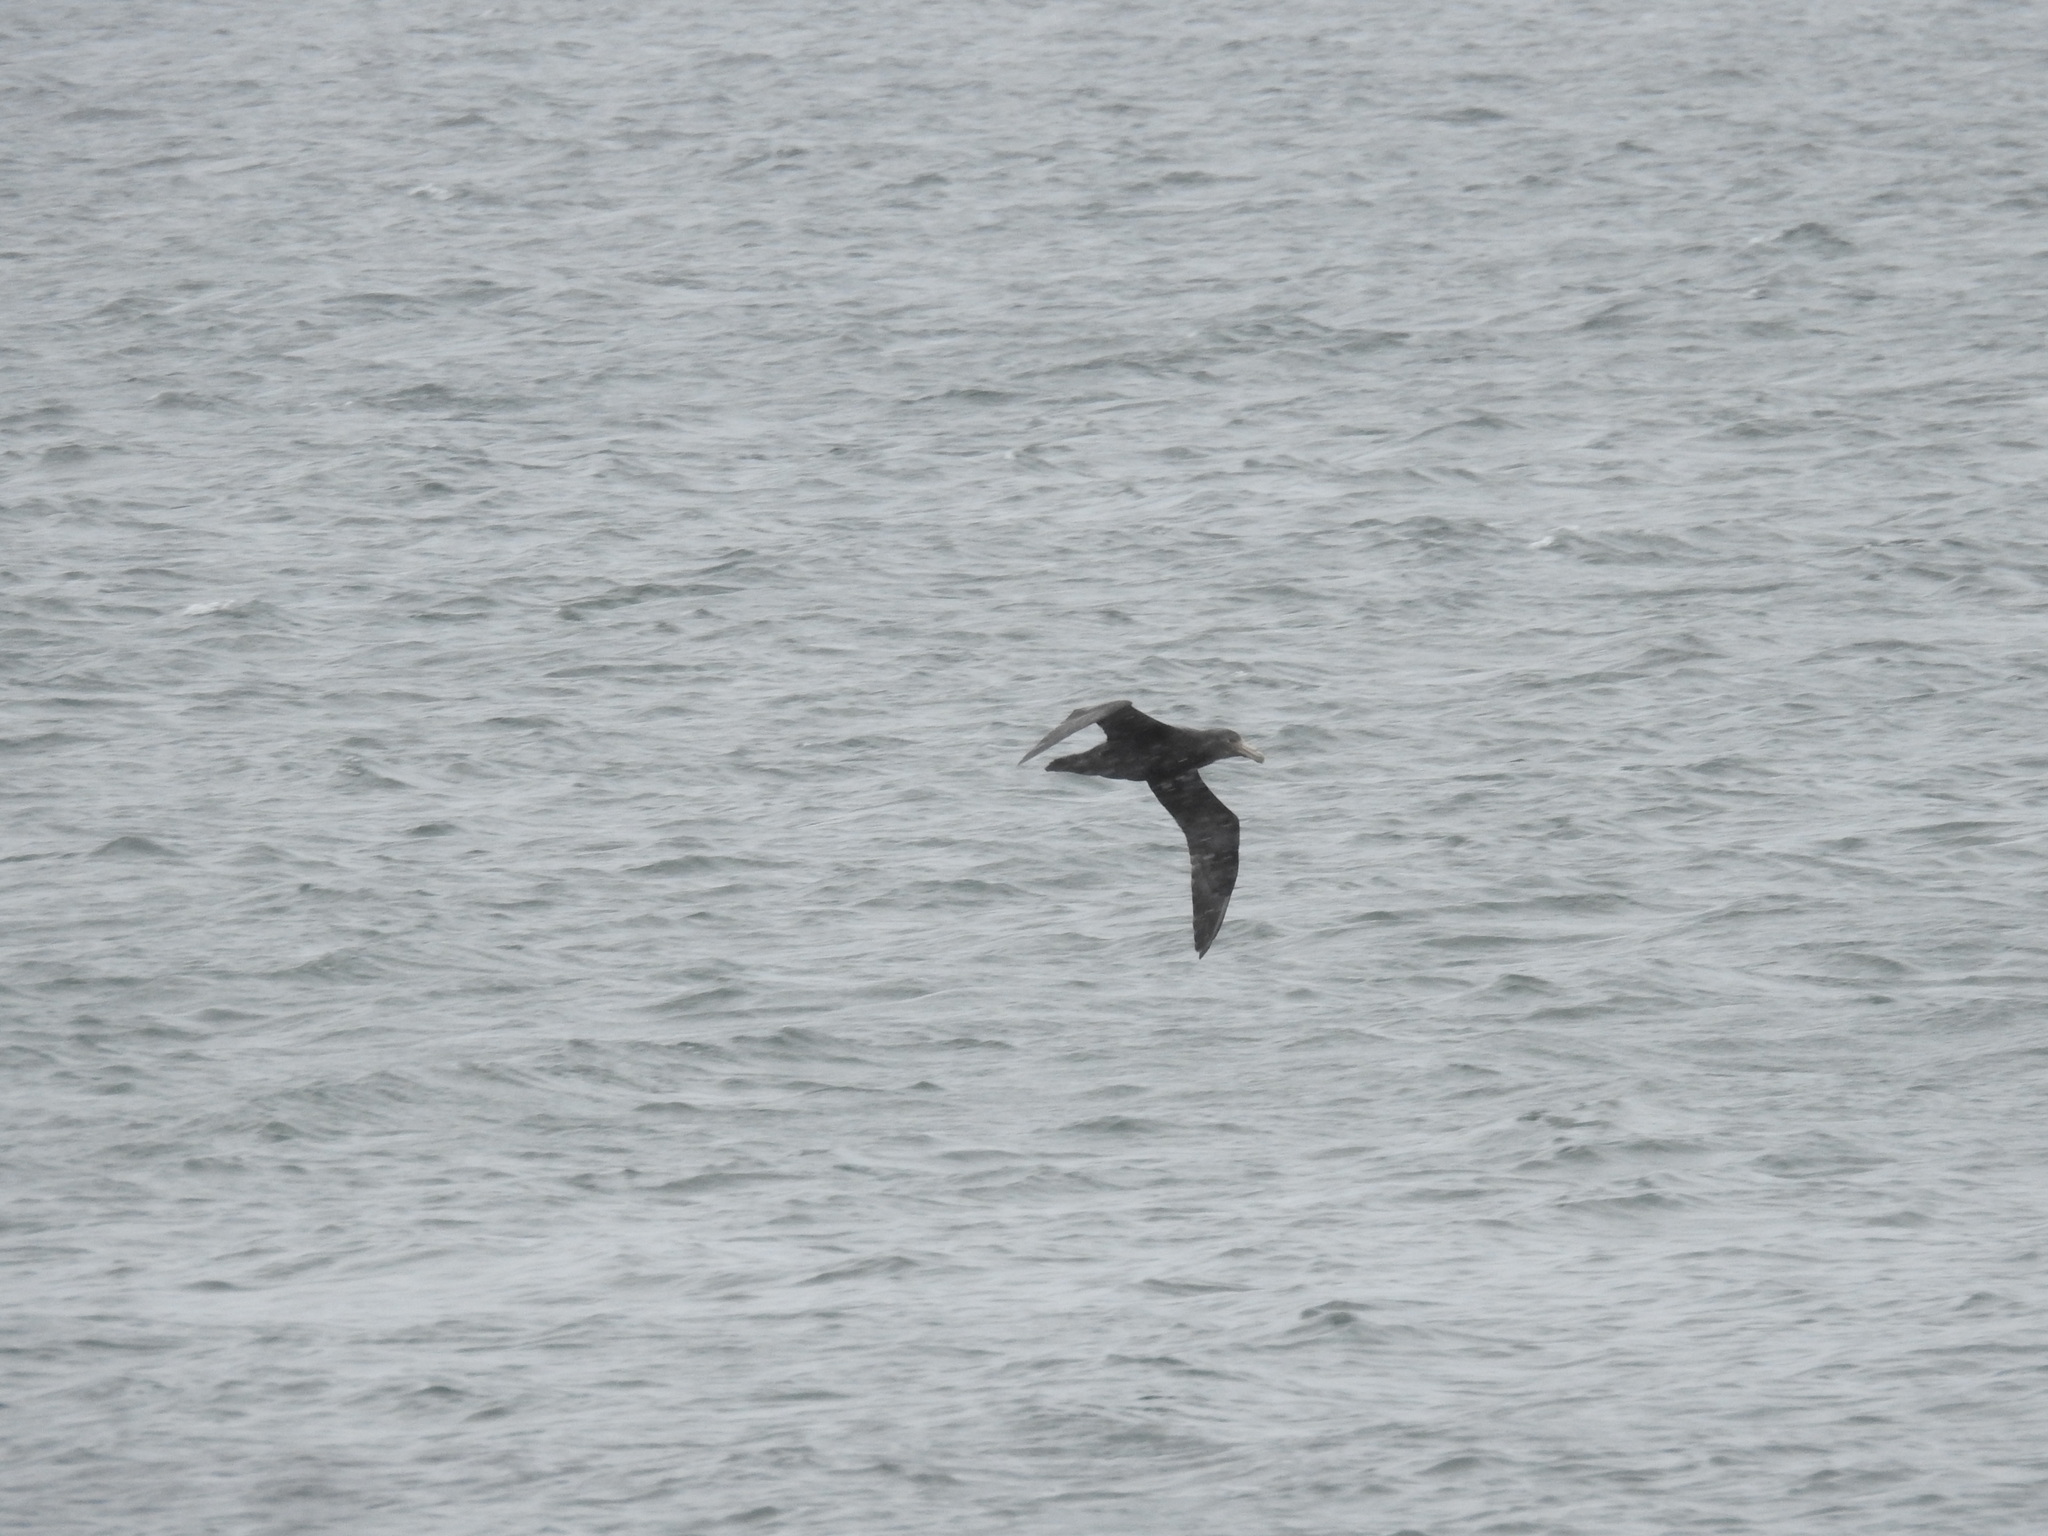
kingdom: Animalia
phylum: Chordata
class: Aves
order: Procellariiformes
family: Procellariidae
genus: Macronectes
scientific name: Macronectes giganteus
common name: Southern giant petrel
